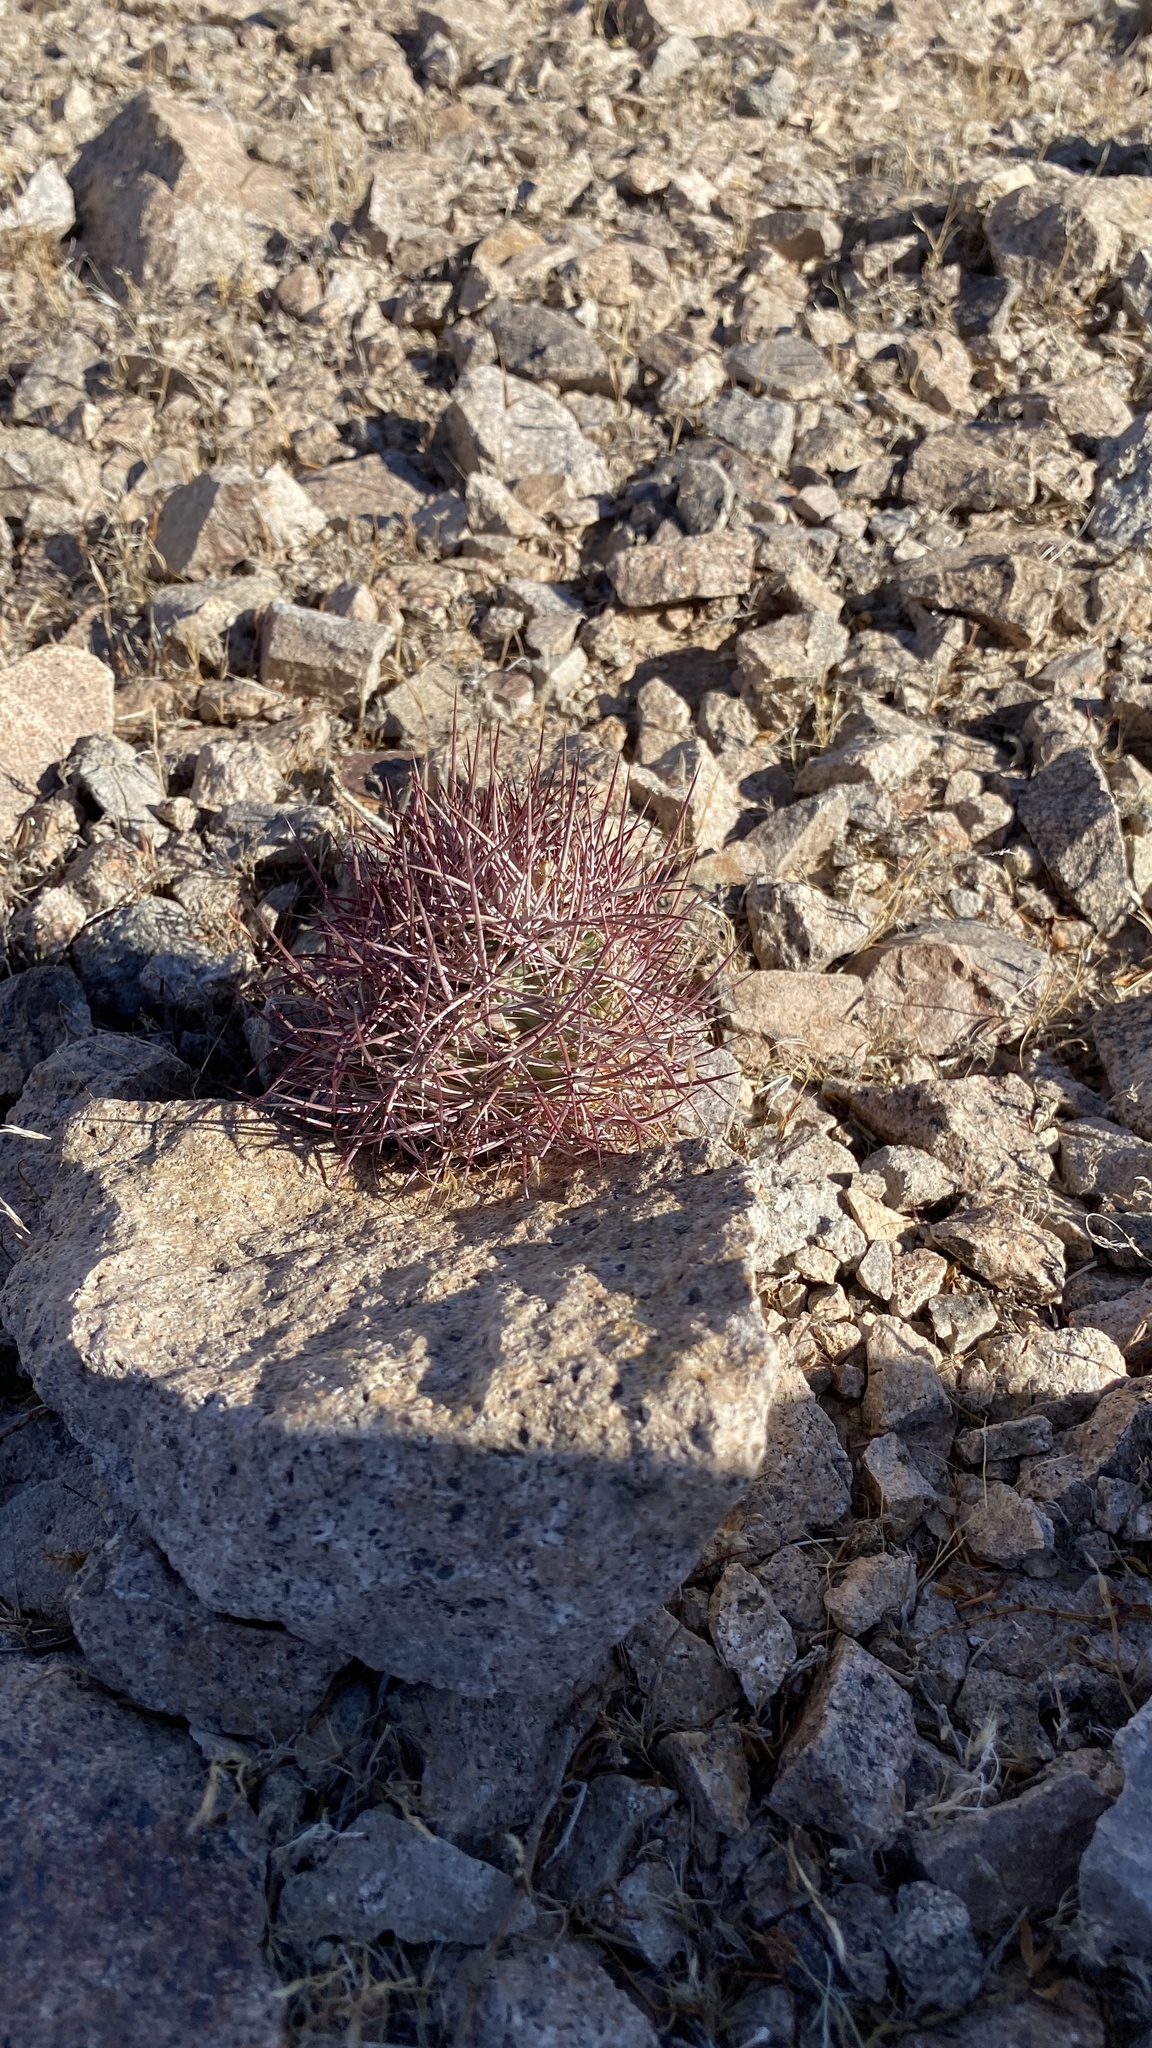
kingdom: Plantae
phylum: Tracheophyta
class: Magnoliopsida
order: Caryophyllales
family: Cactaceae
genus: Sclerocactus
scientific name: Sclerocactus johnsonii
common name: Eight-spine fishhook cactus
